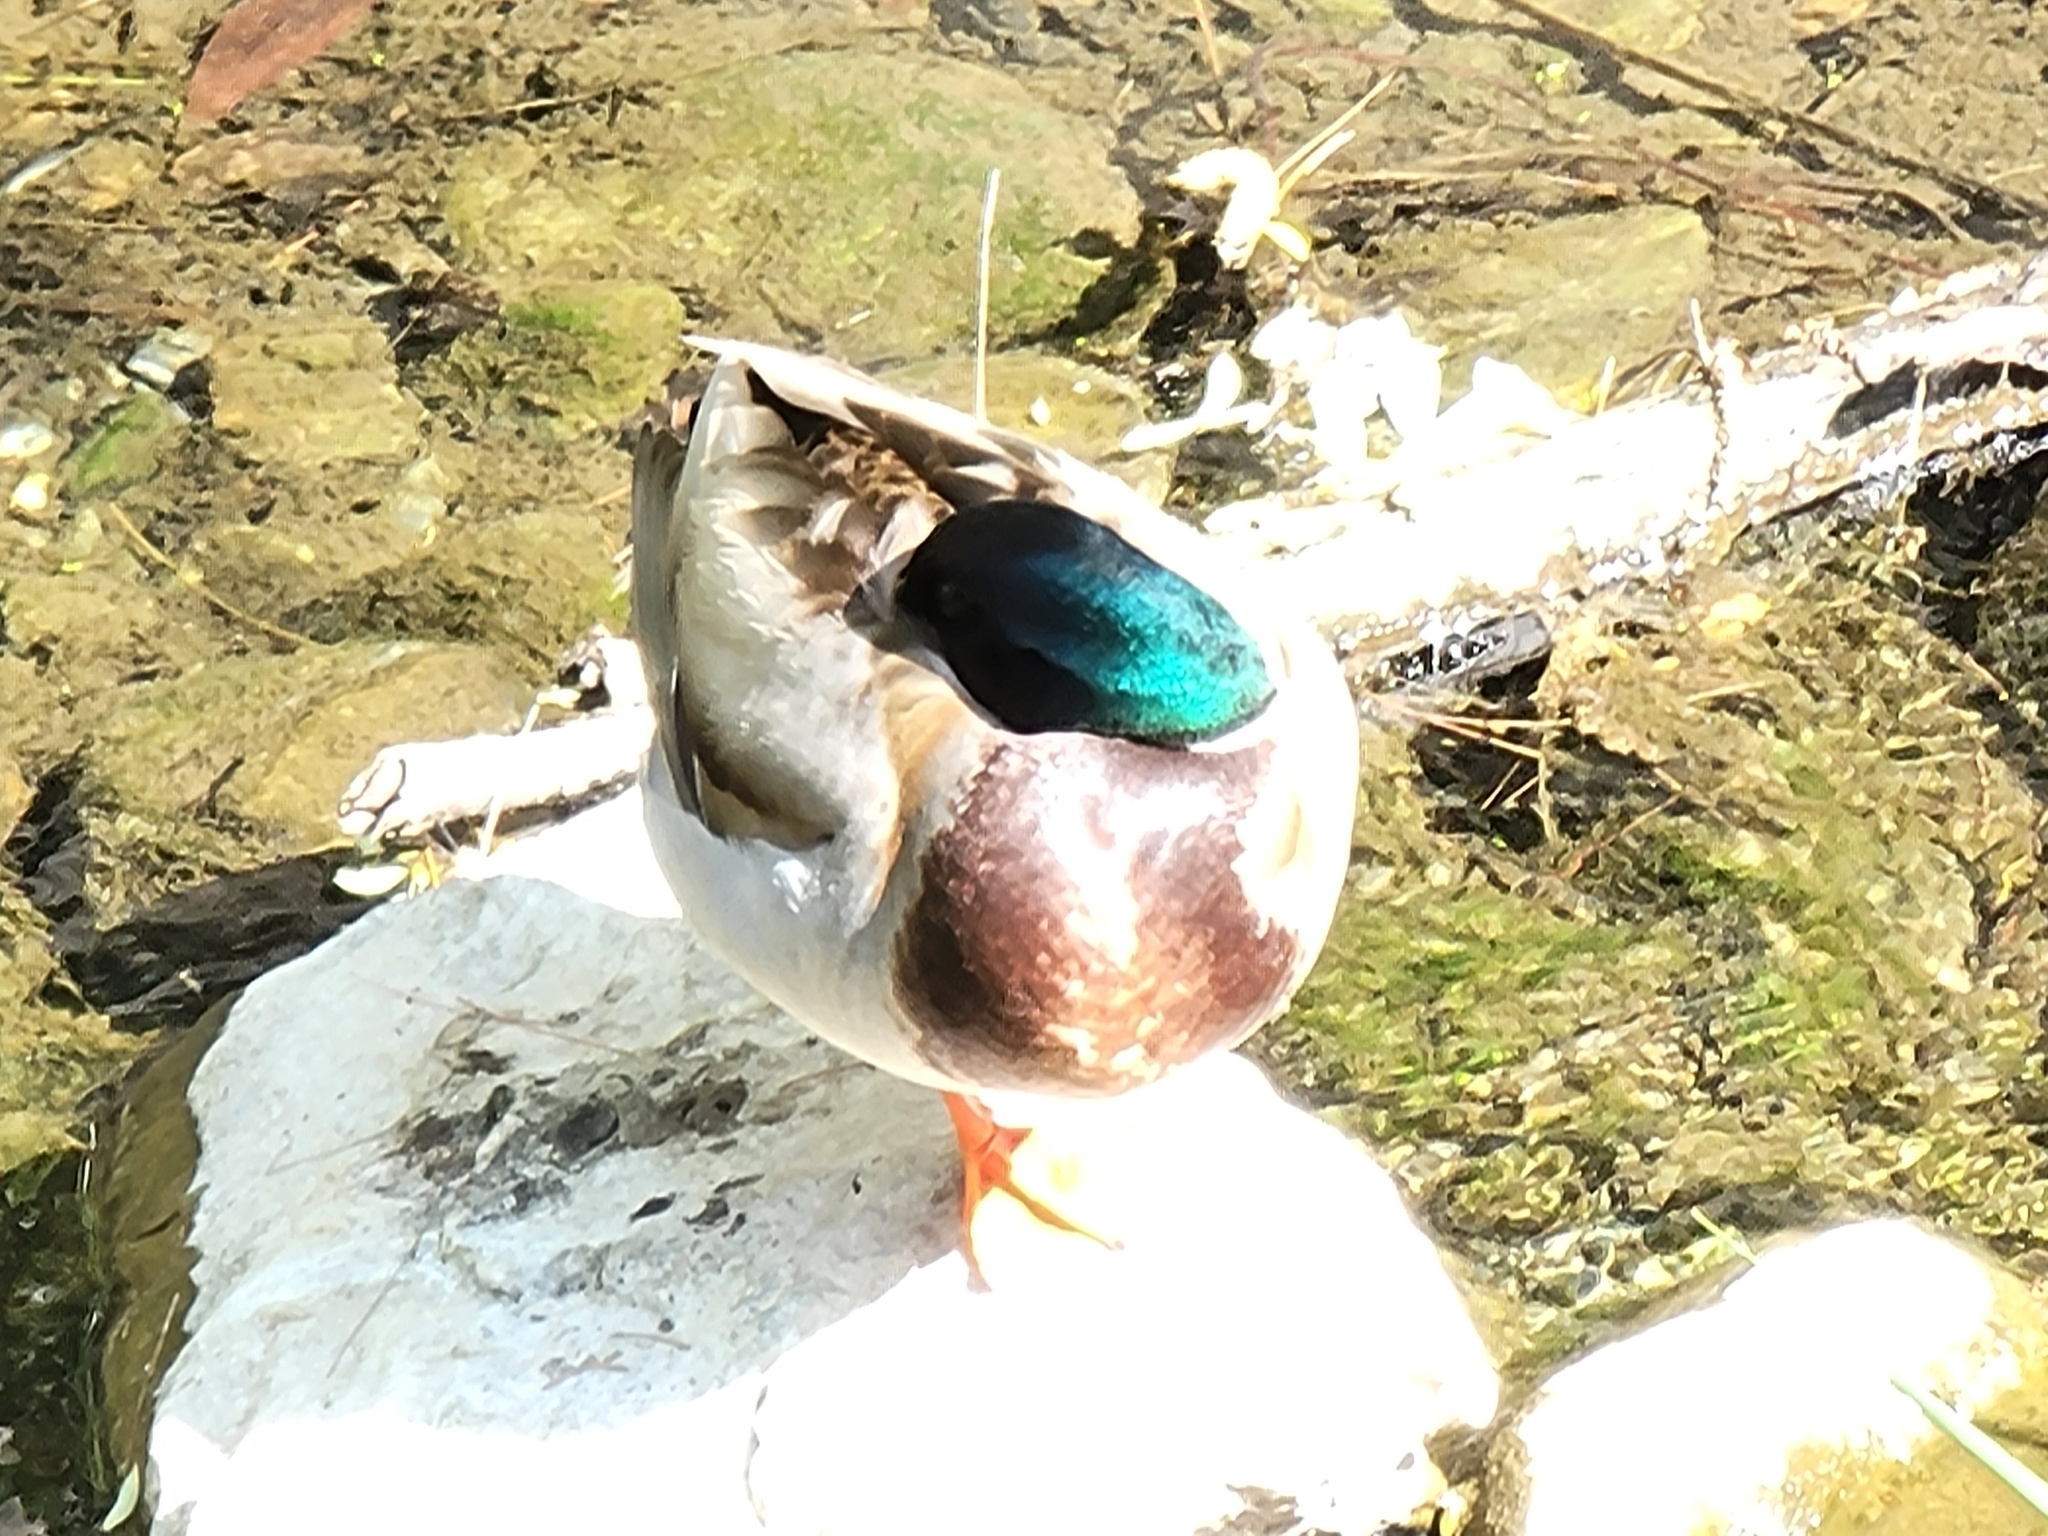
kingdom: Animalia
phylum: Chordata
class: Aves
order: Anseriformes
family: Anatidae
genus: Anas
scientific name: Anas platyrhynchos
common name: Mallard
